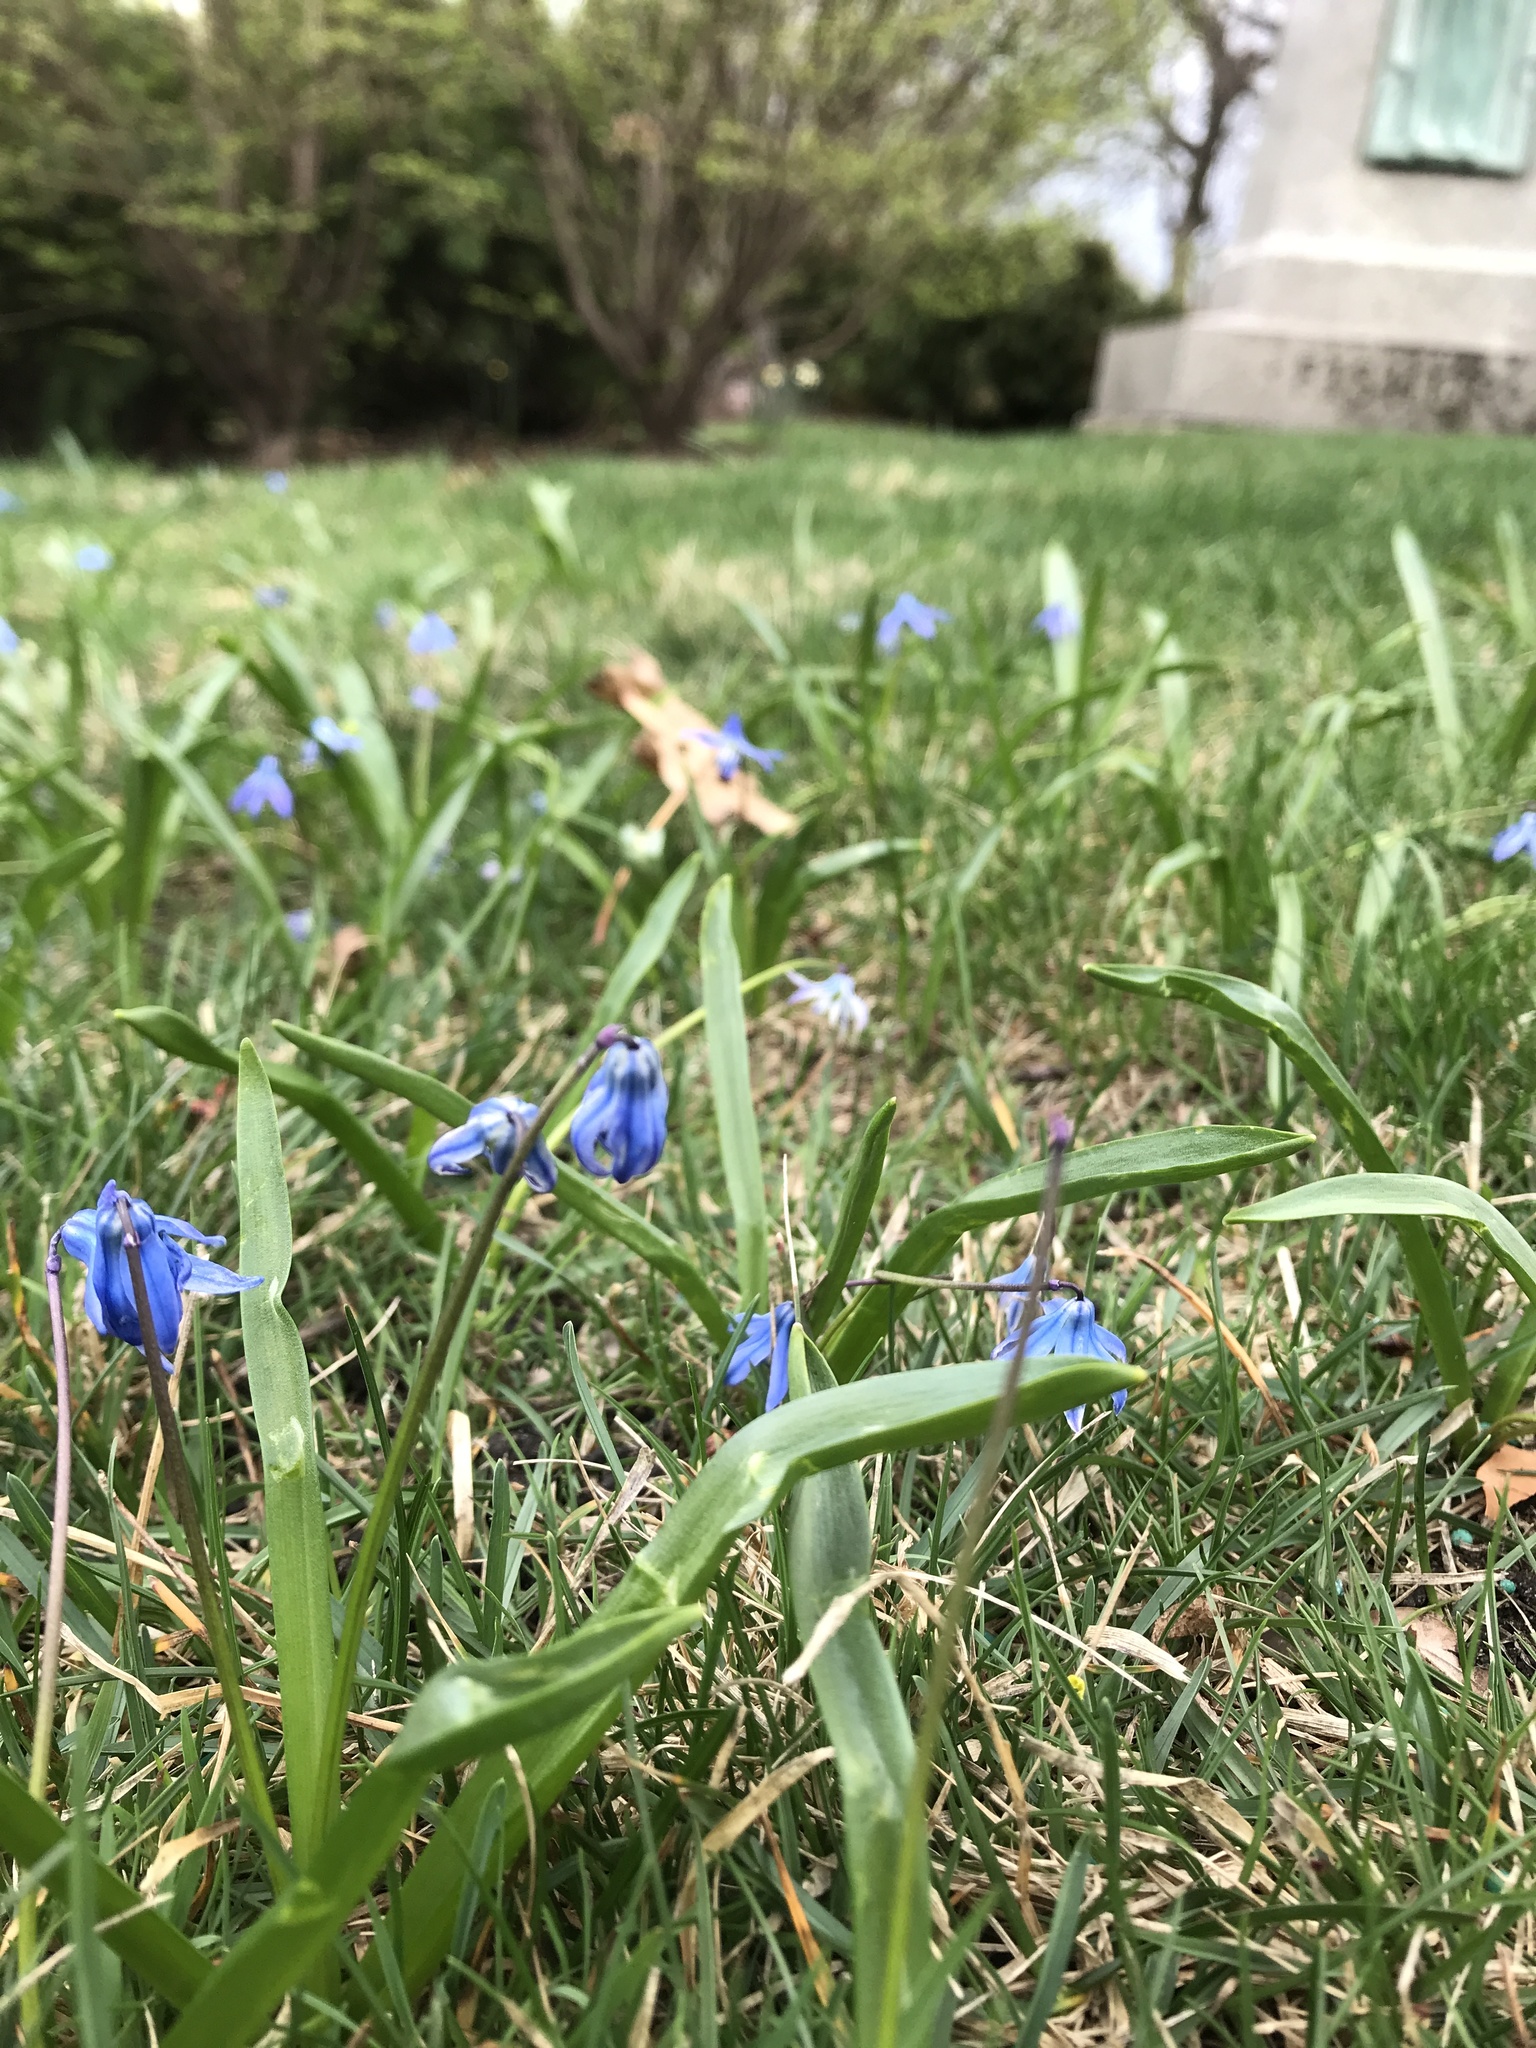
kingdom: Plantae
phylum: Tracheophyta
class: Liliopsida
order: Asparagales
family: Asparagaceae
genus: Scilla
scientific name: Scilla siberica
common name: Siberian squill
